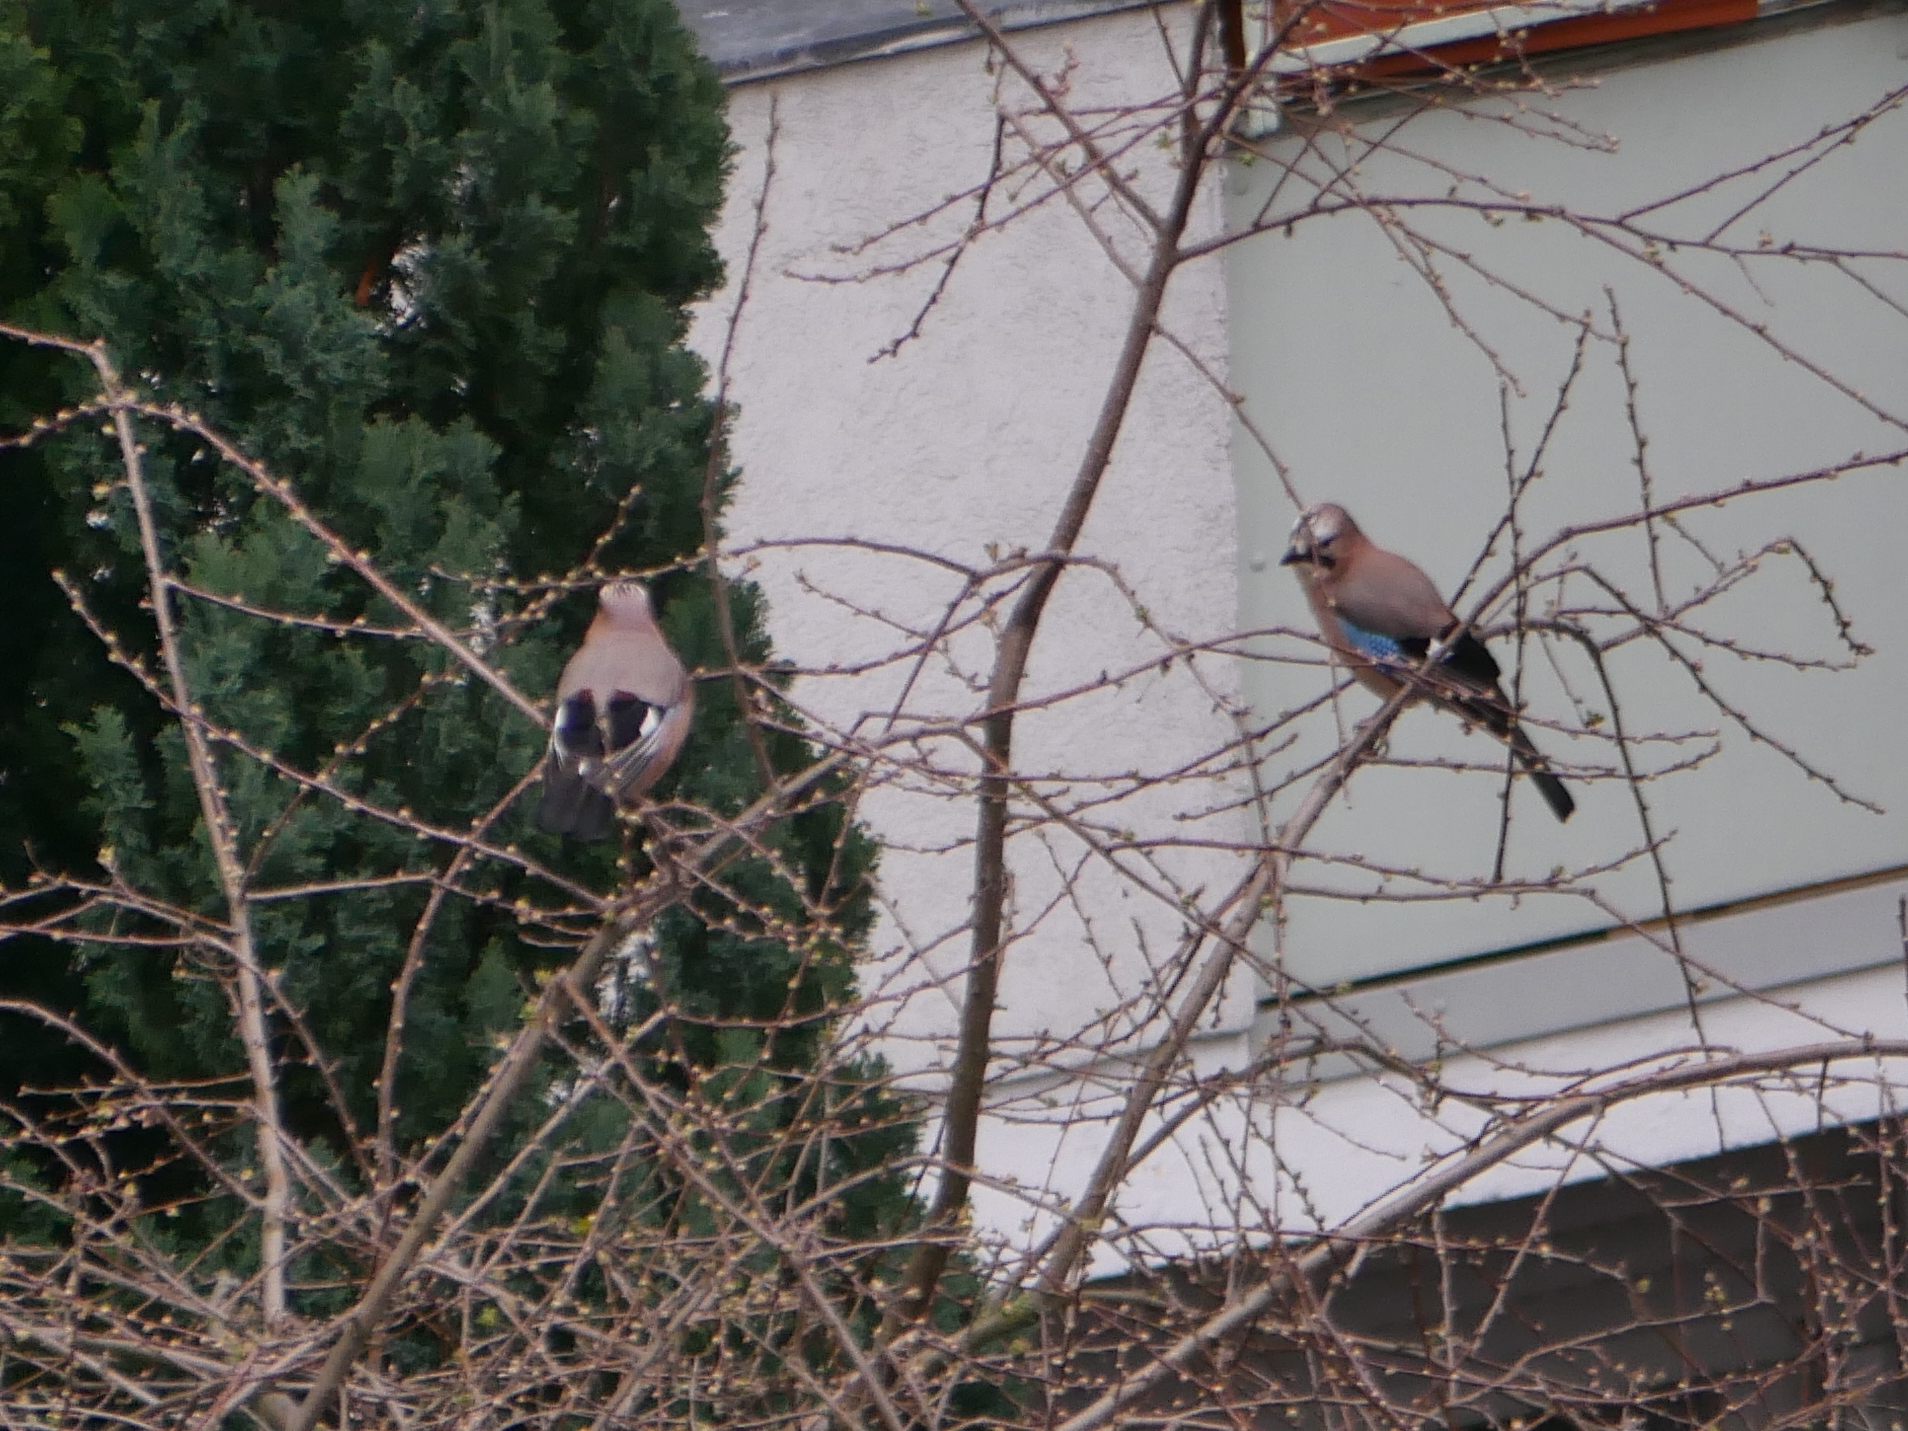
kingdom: Animalia
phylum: Chordata
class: Aves
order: Passeriformes
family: Corvidae
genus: Garrulus
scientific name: Garrulus glandarius
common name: Eurasian jay
